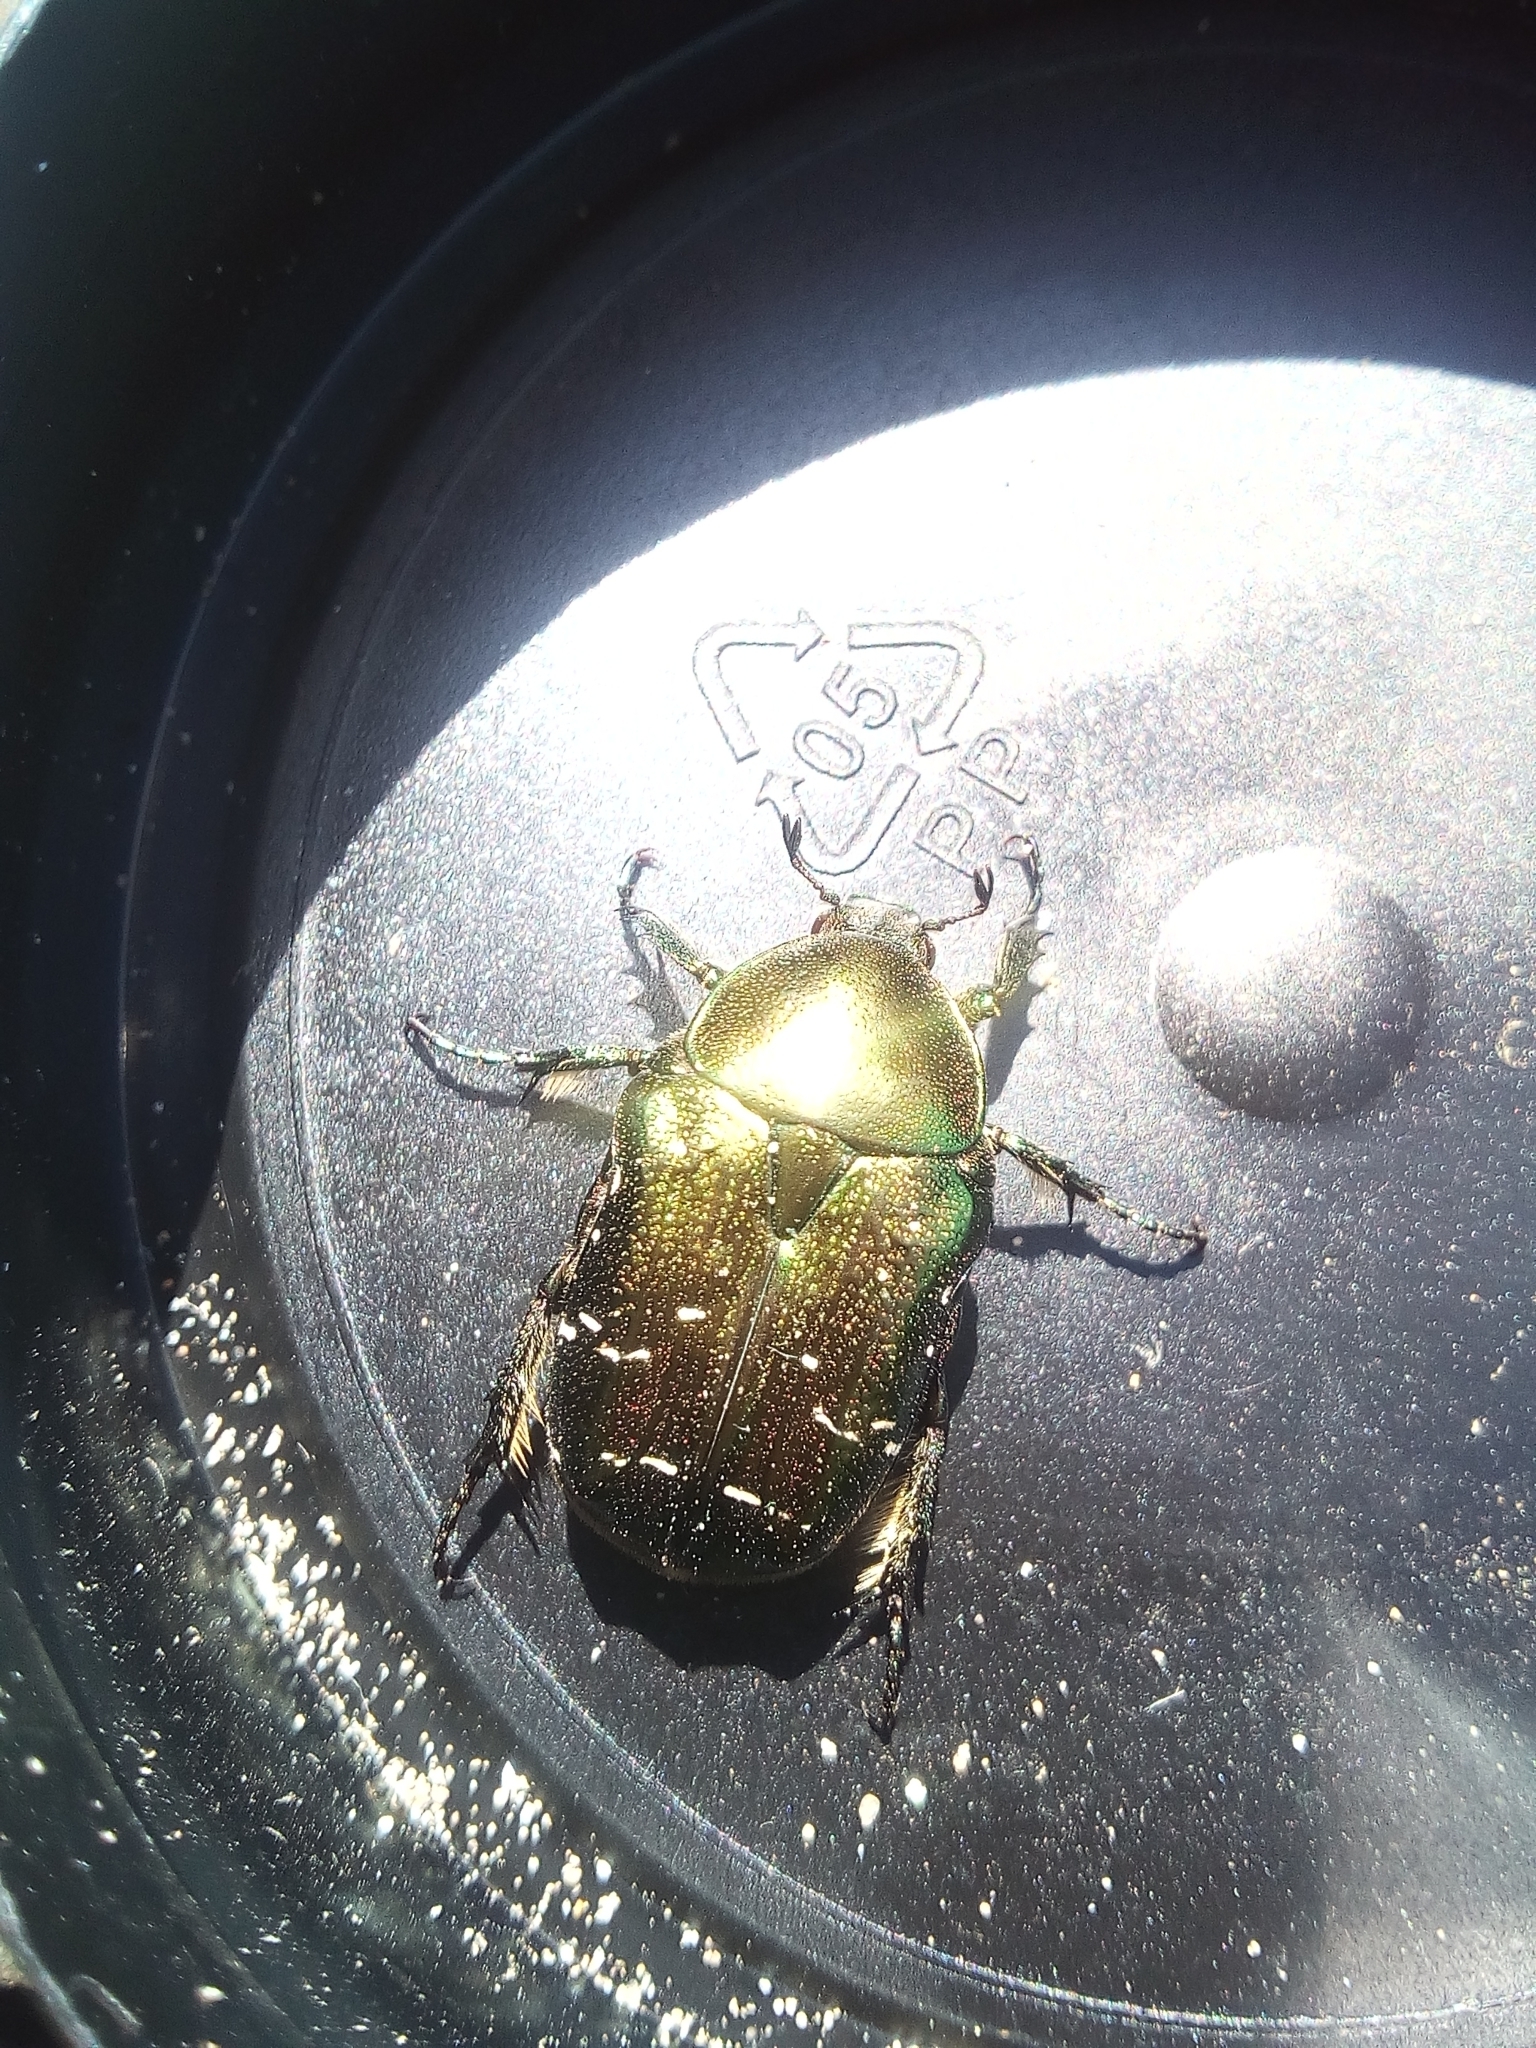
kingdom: Animalia
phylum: Arthropoda
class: Insecta
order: Coleoptera
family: Scarabaeidae
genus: Cetonia
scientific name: Cetonia aurata
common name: Rose chafer
